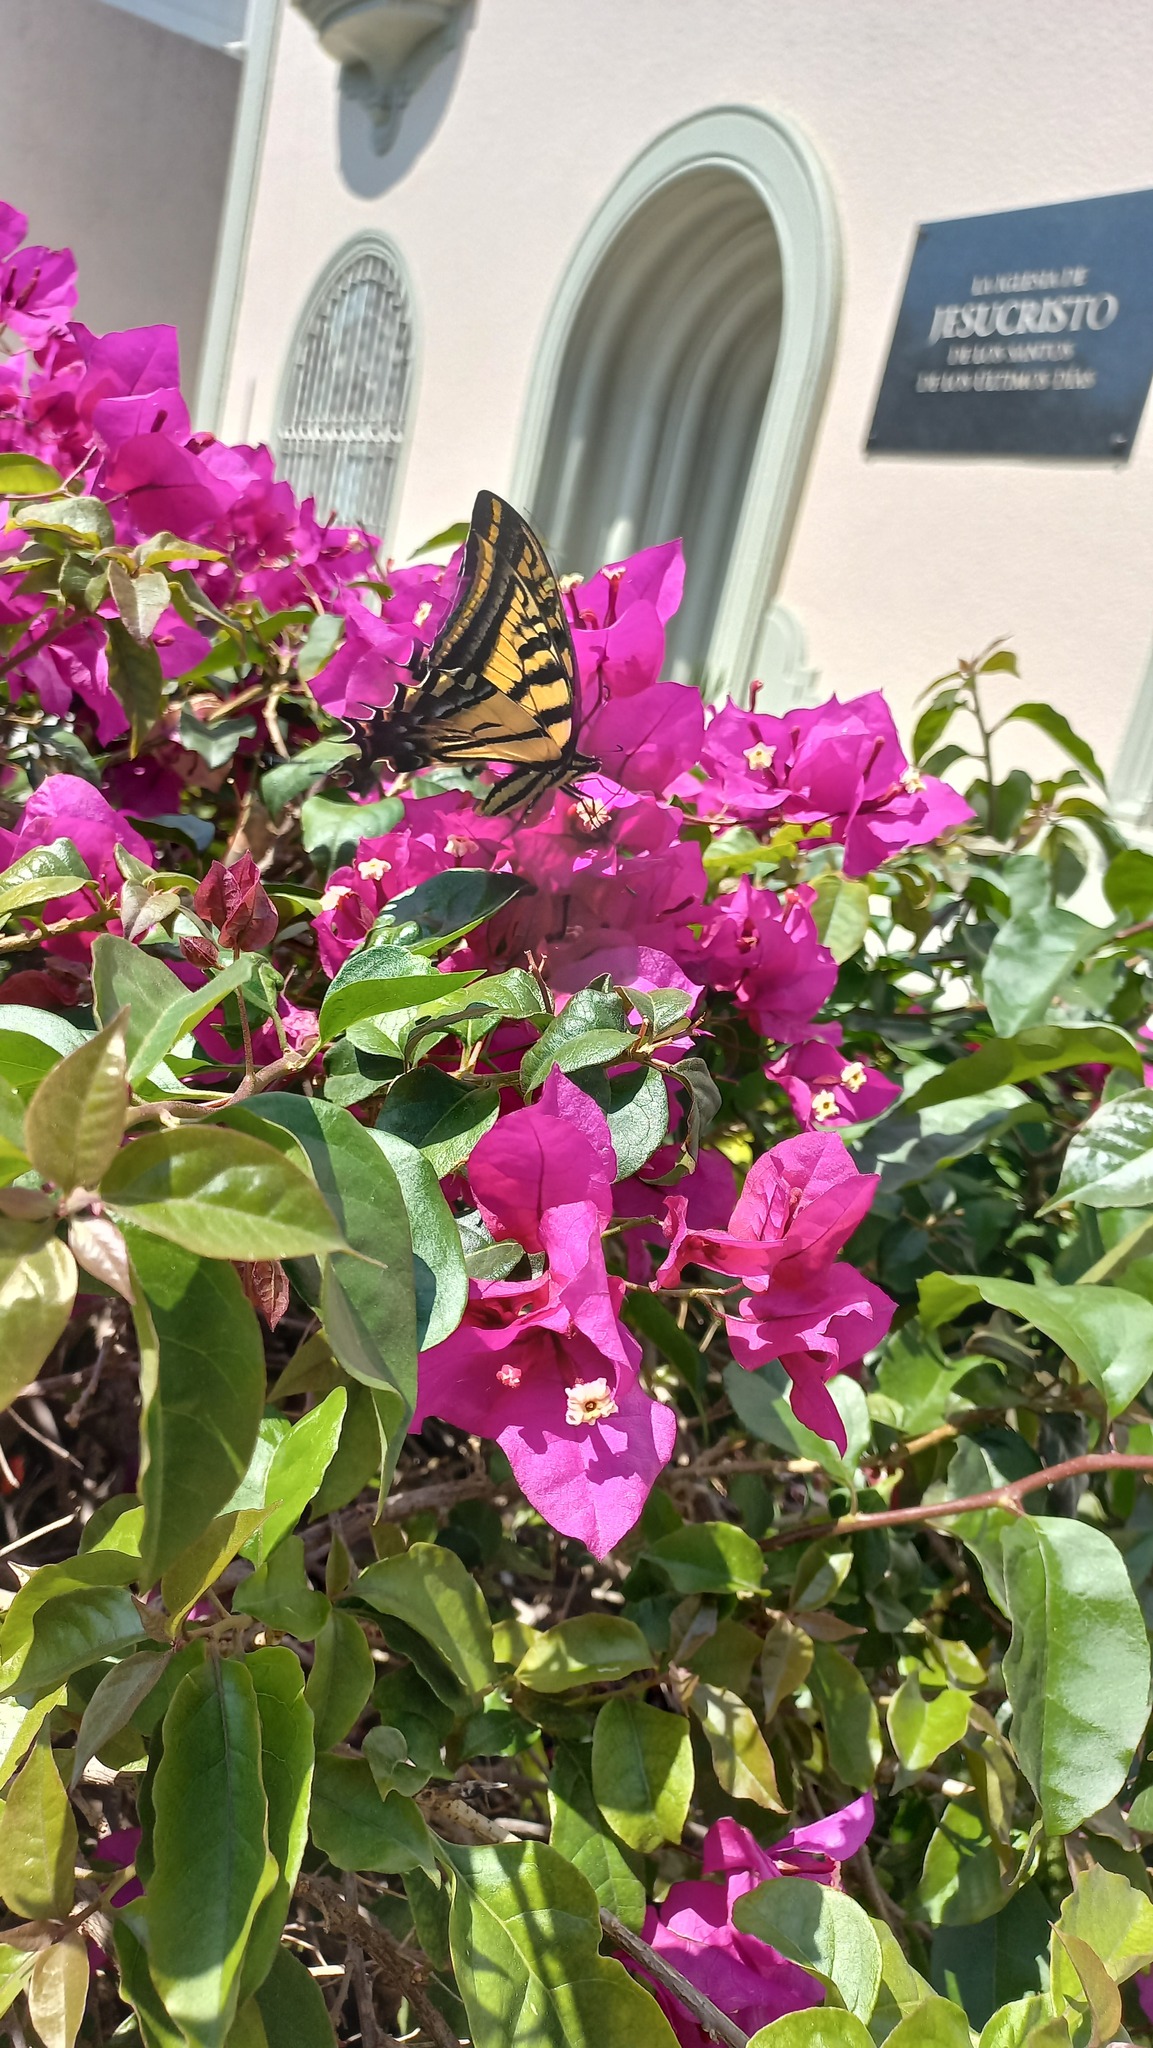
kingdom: Animalia
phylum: Arthropoda
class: Insecta
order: Lepidoptera
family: Papilionidae
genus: Papilio
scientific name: Papilio multicaudata
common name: Two-tailed tiger swallowtail
